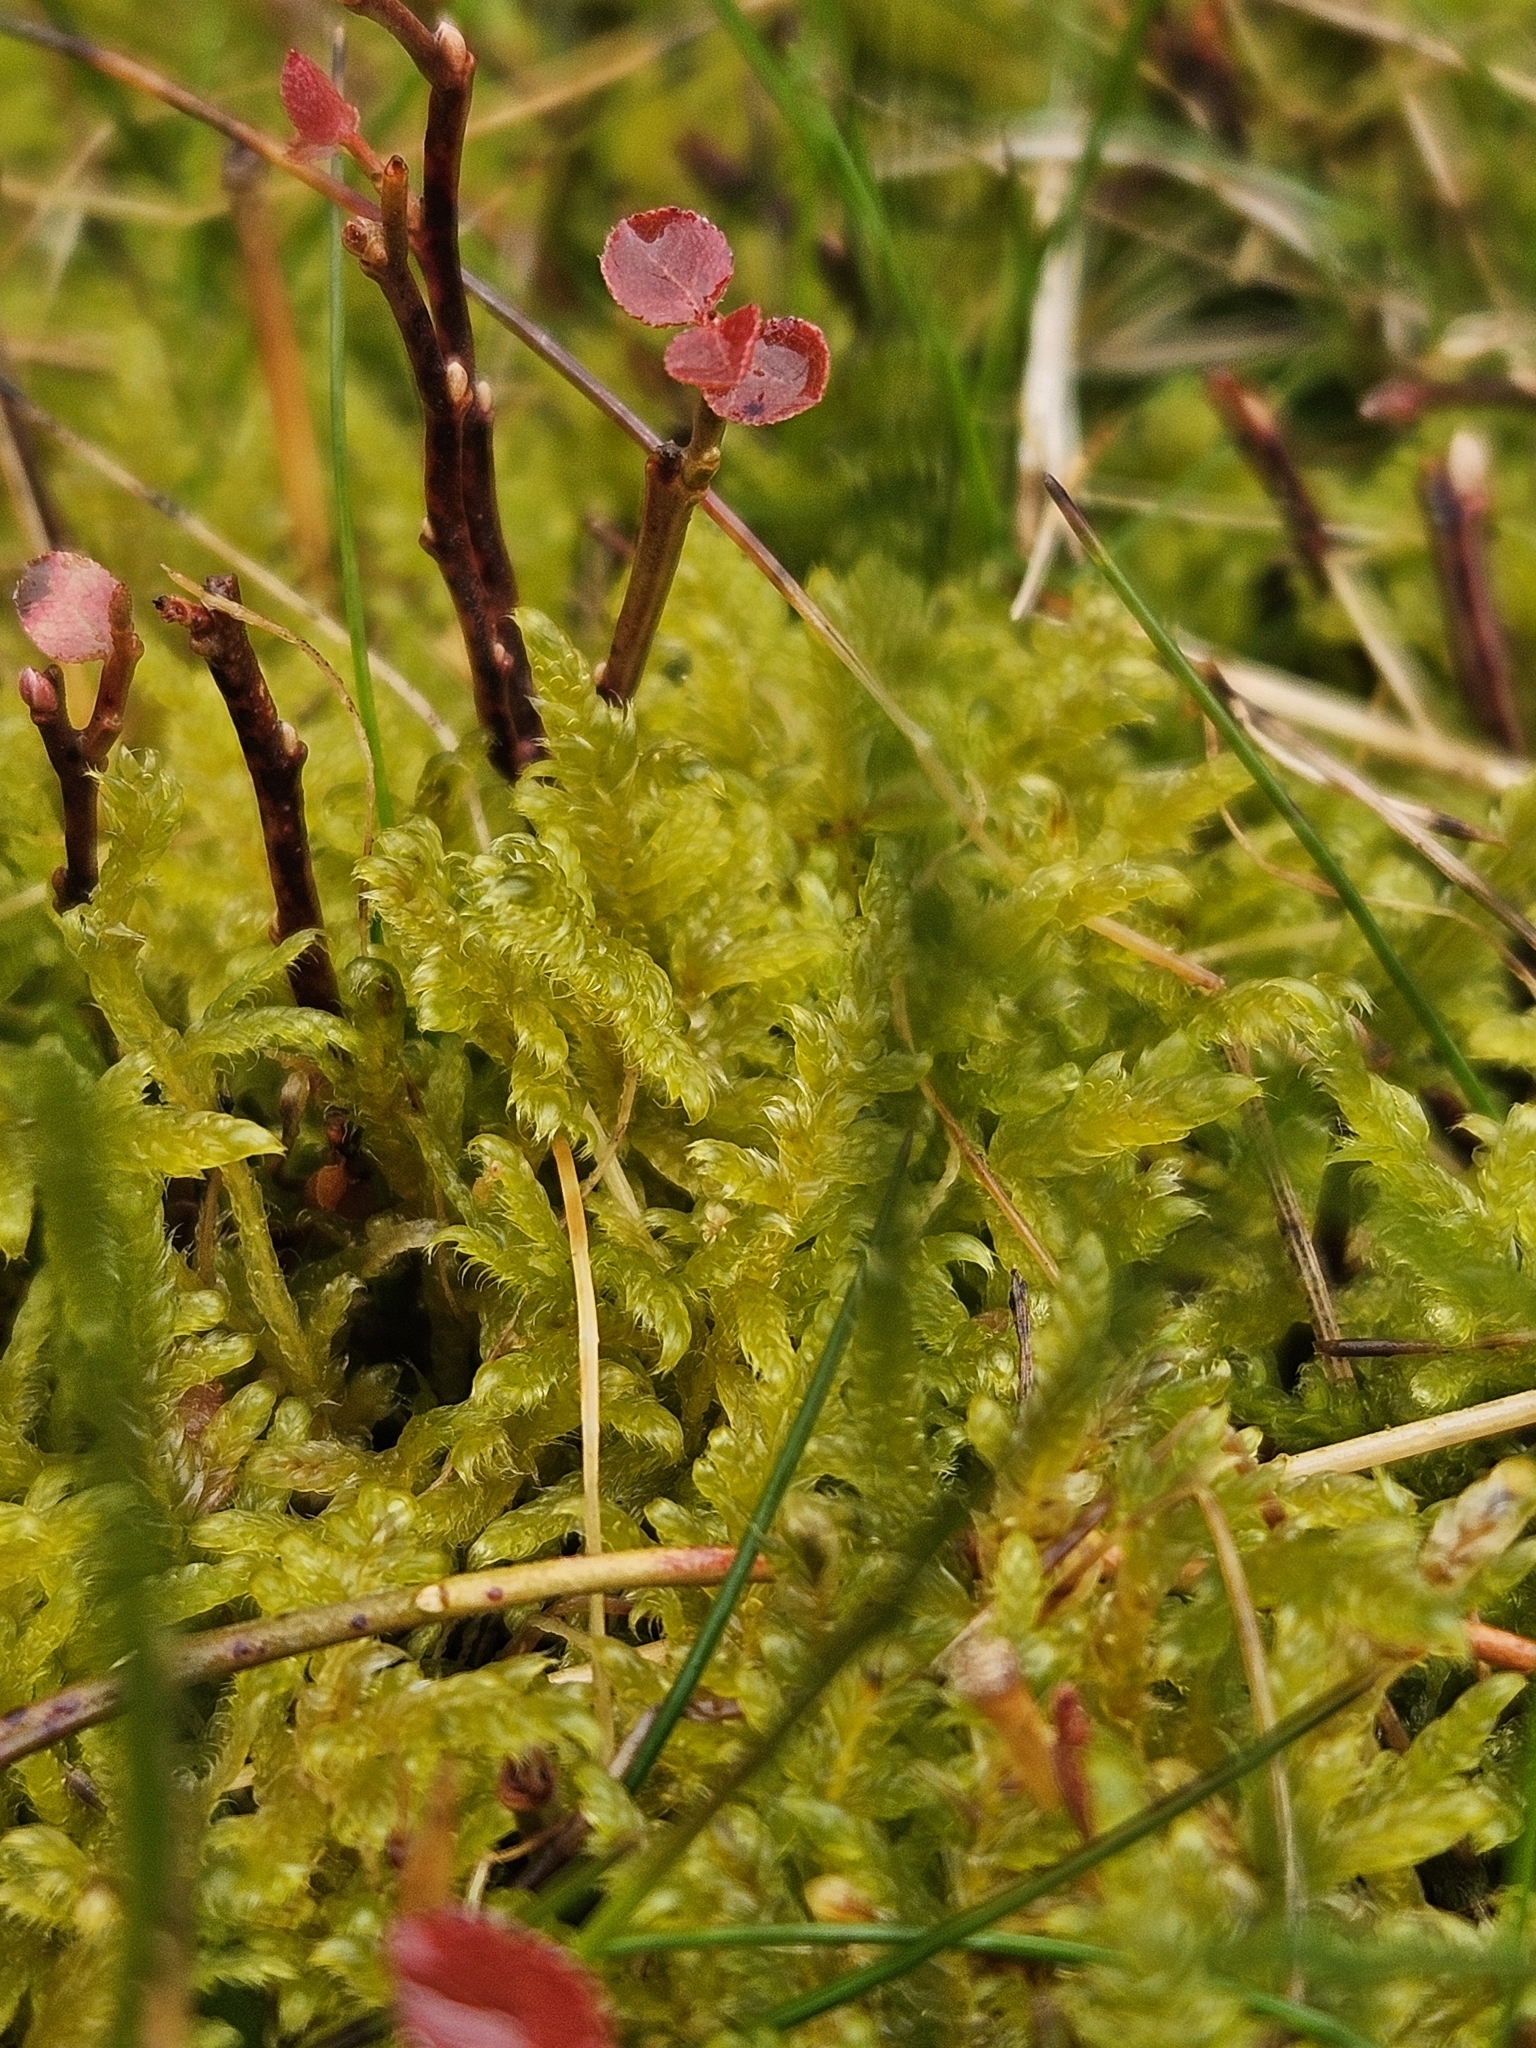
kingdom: Plantae
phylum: Bryophyta
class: Bryopsida
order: Hypnales
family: Hypnaceae
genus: Hypnum
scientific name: Hypnum jutlandicum
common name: Heath plait-moss
